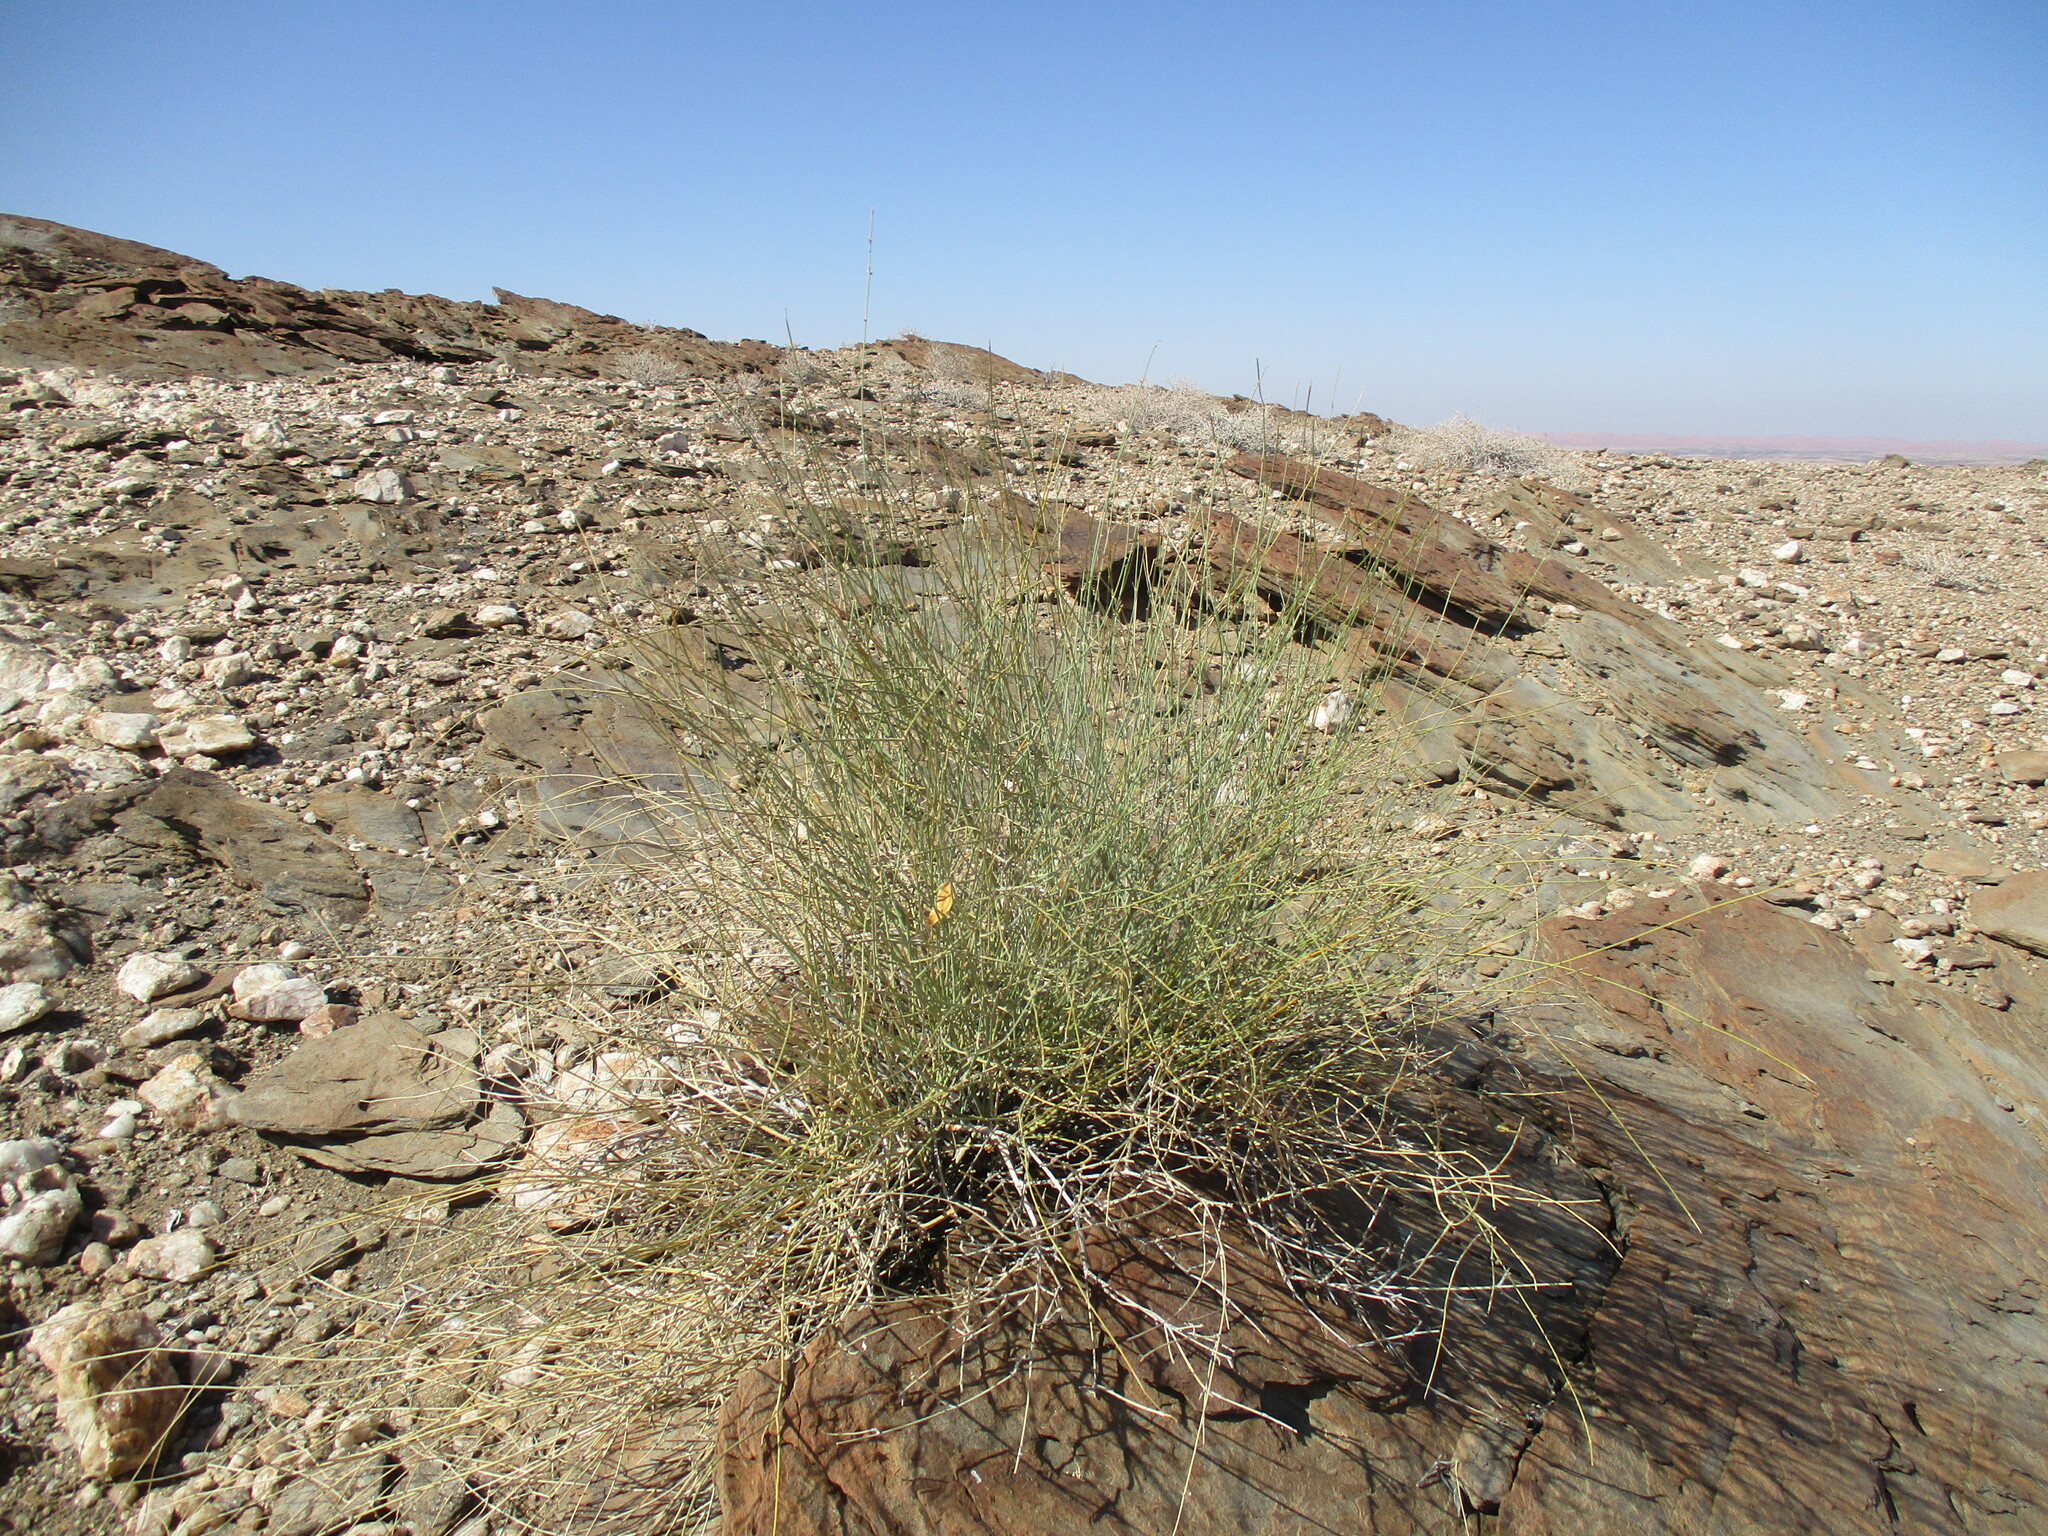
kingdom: Plantae
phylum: Tracheophyta
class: Magnoliopsida
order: Gentianales
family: Apocynaceae
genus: Orthanthera
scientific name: Orthanthera albida
